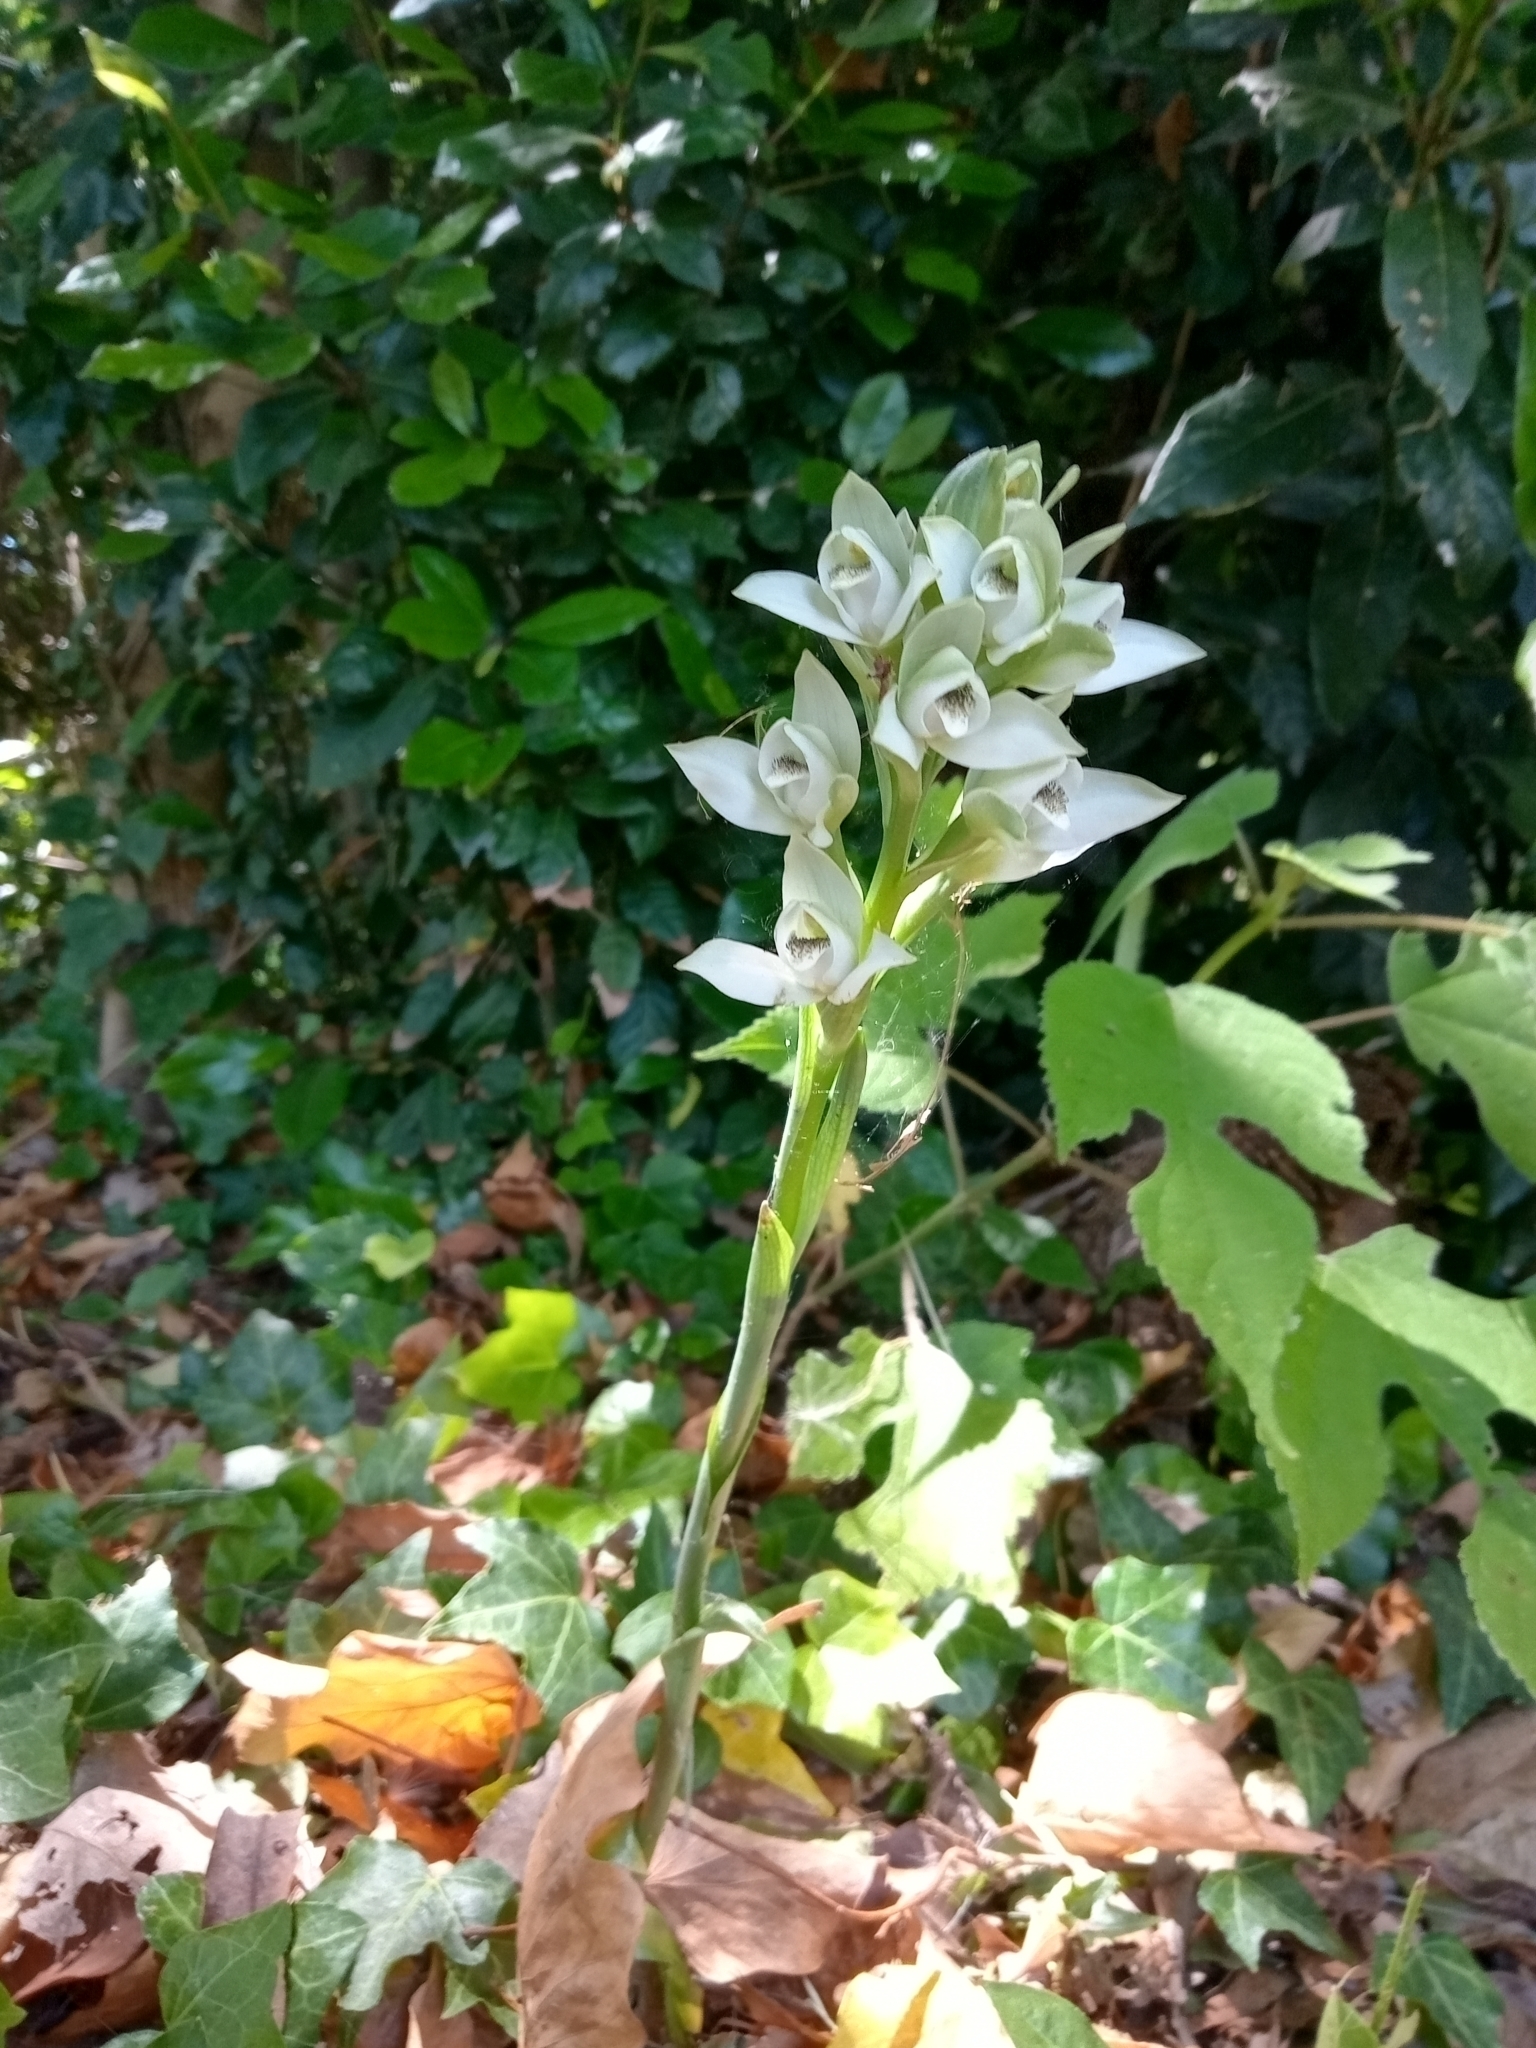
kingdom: Plantae
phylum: Tracheophyta
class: Liliopsida
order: Asparagales
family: Orchidaceae
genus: Chloraea
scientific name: Chloraea membranacea
